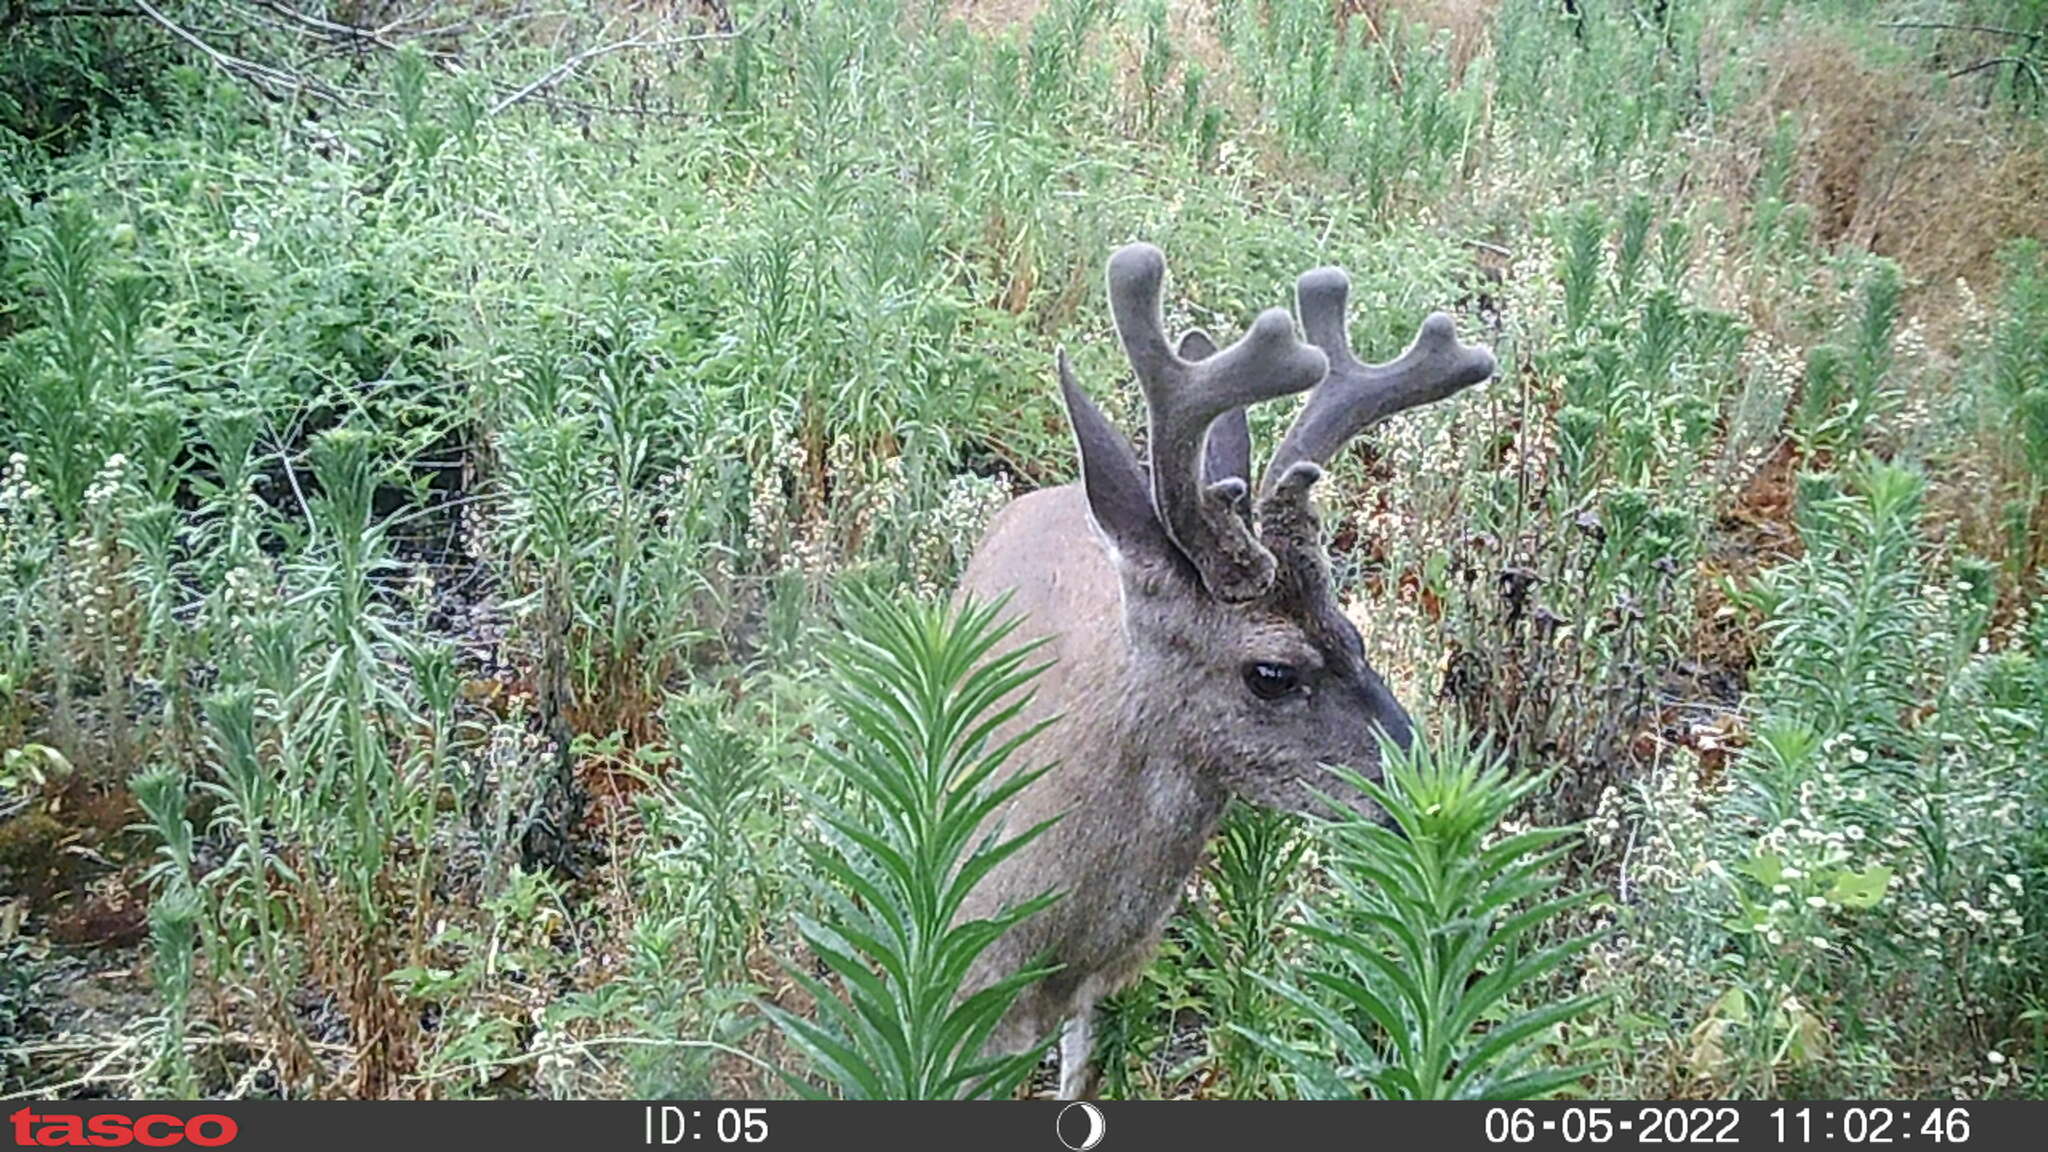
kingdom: Animalia
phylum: Chordata
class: Mammalia
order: Artiodactyla
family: Cervidae
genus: Odocoileus
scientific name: Odocoileus hemionus
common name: Mule deer
